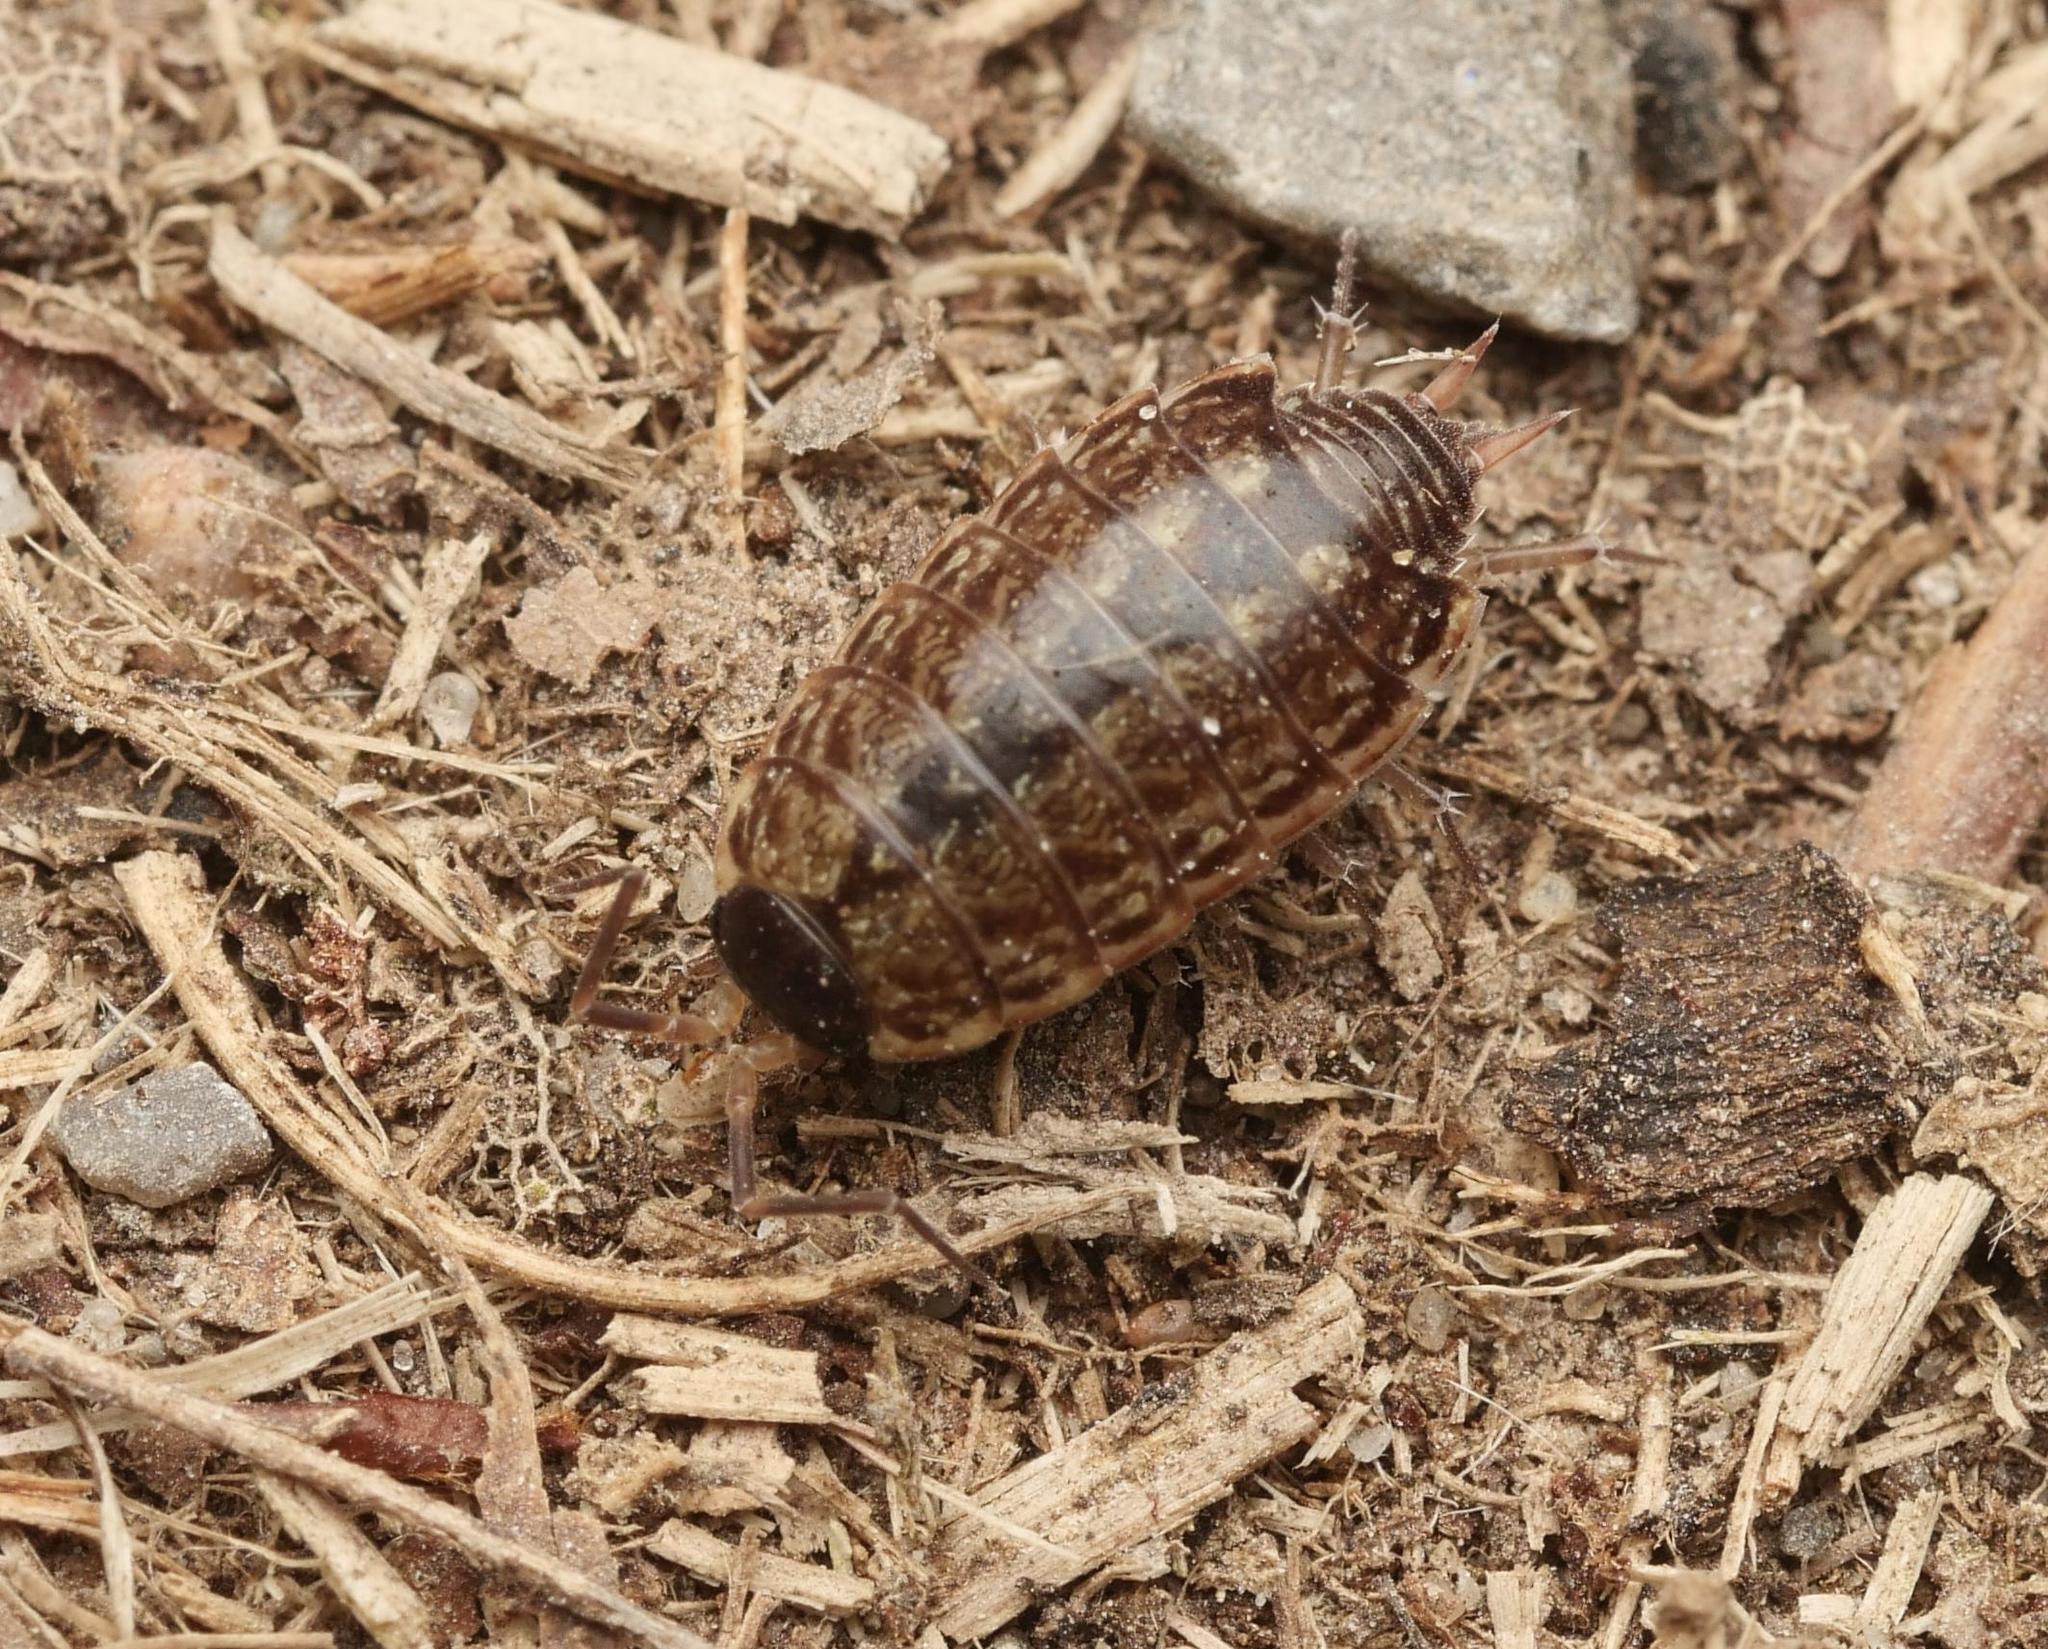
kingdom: Animalia
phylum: Arthropoda
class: Malacostraca
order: Isopoda
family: Philosciidae
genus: Philoscia
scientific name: Philoscia muscorum
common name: Common striped woodlouse
